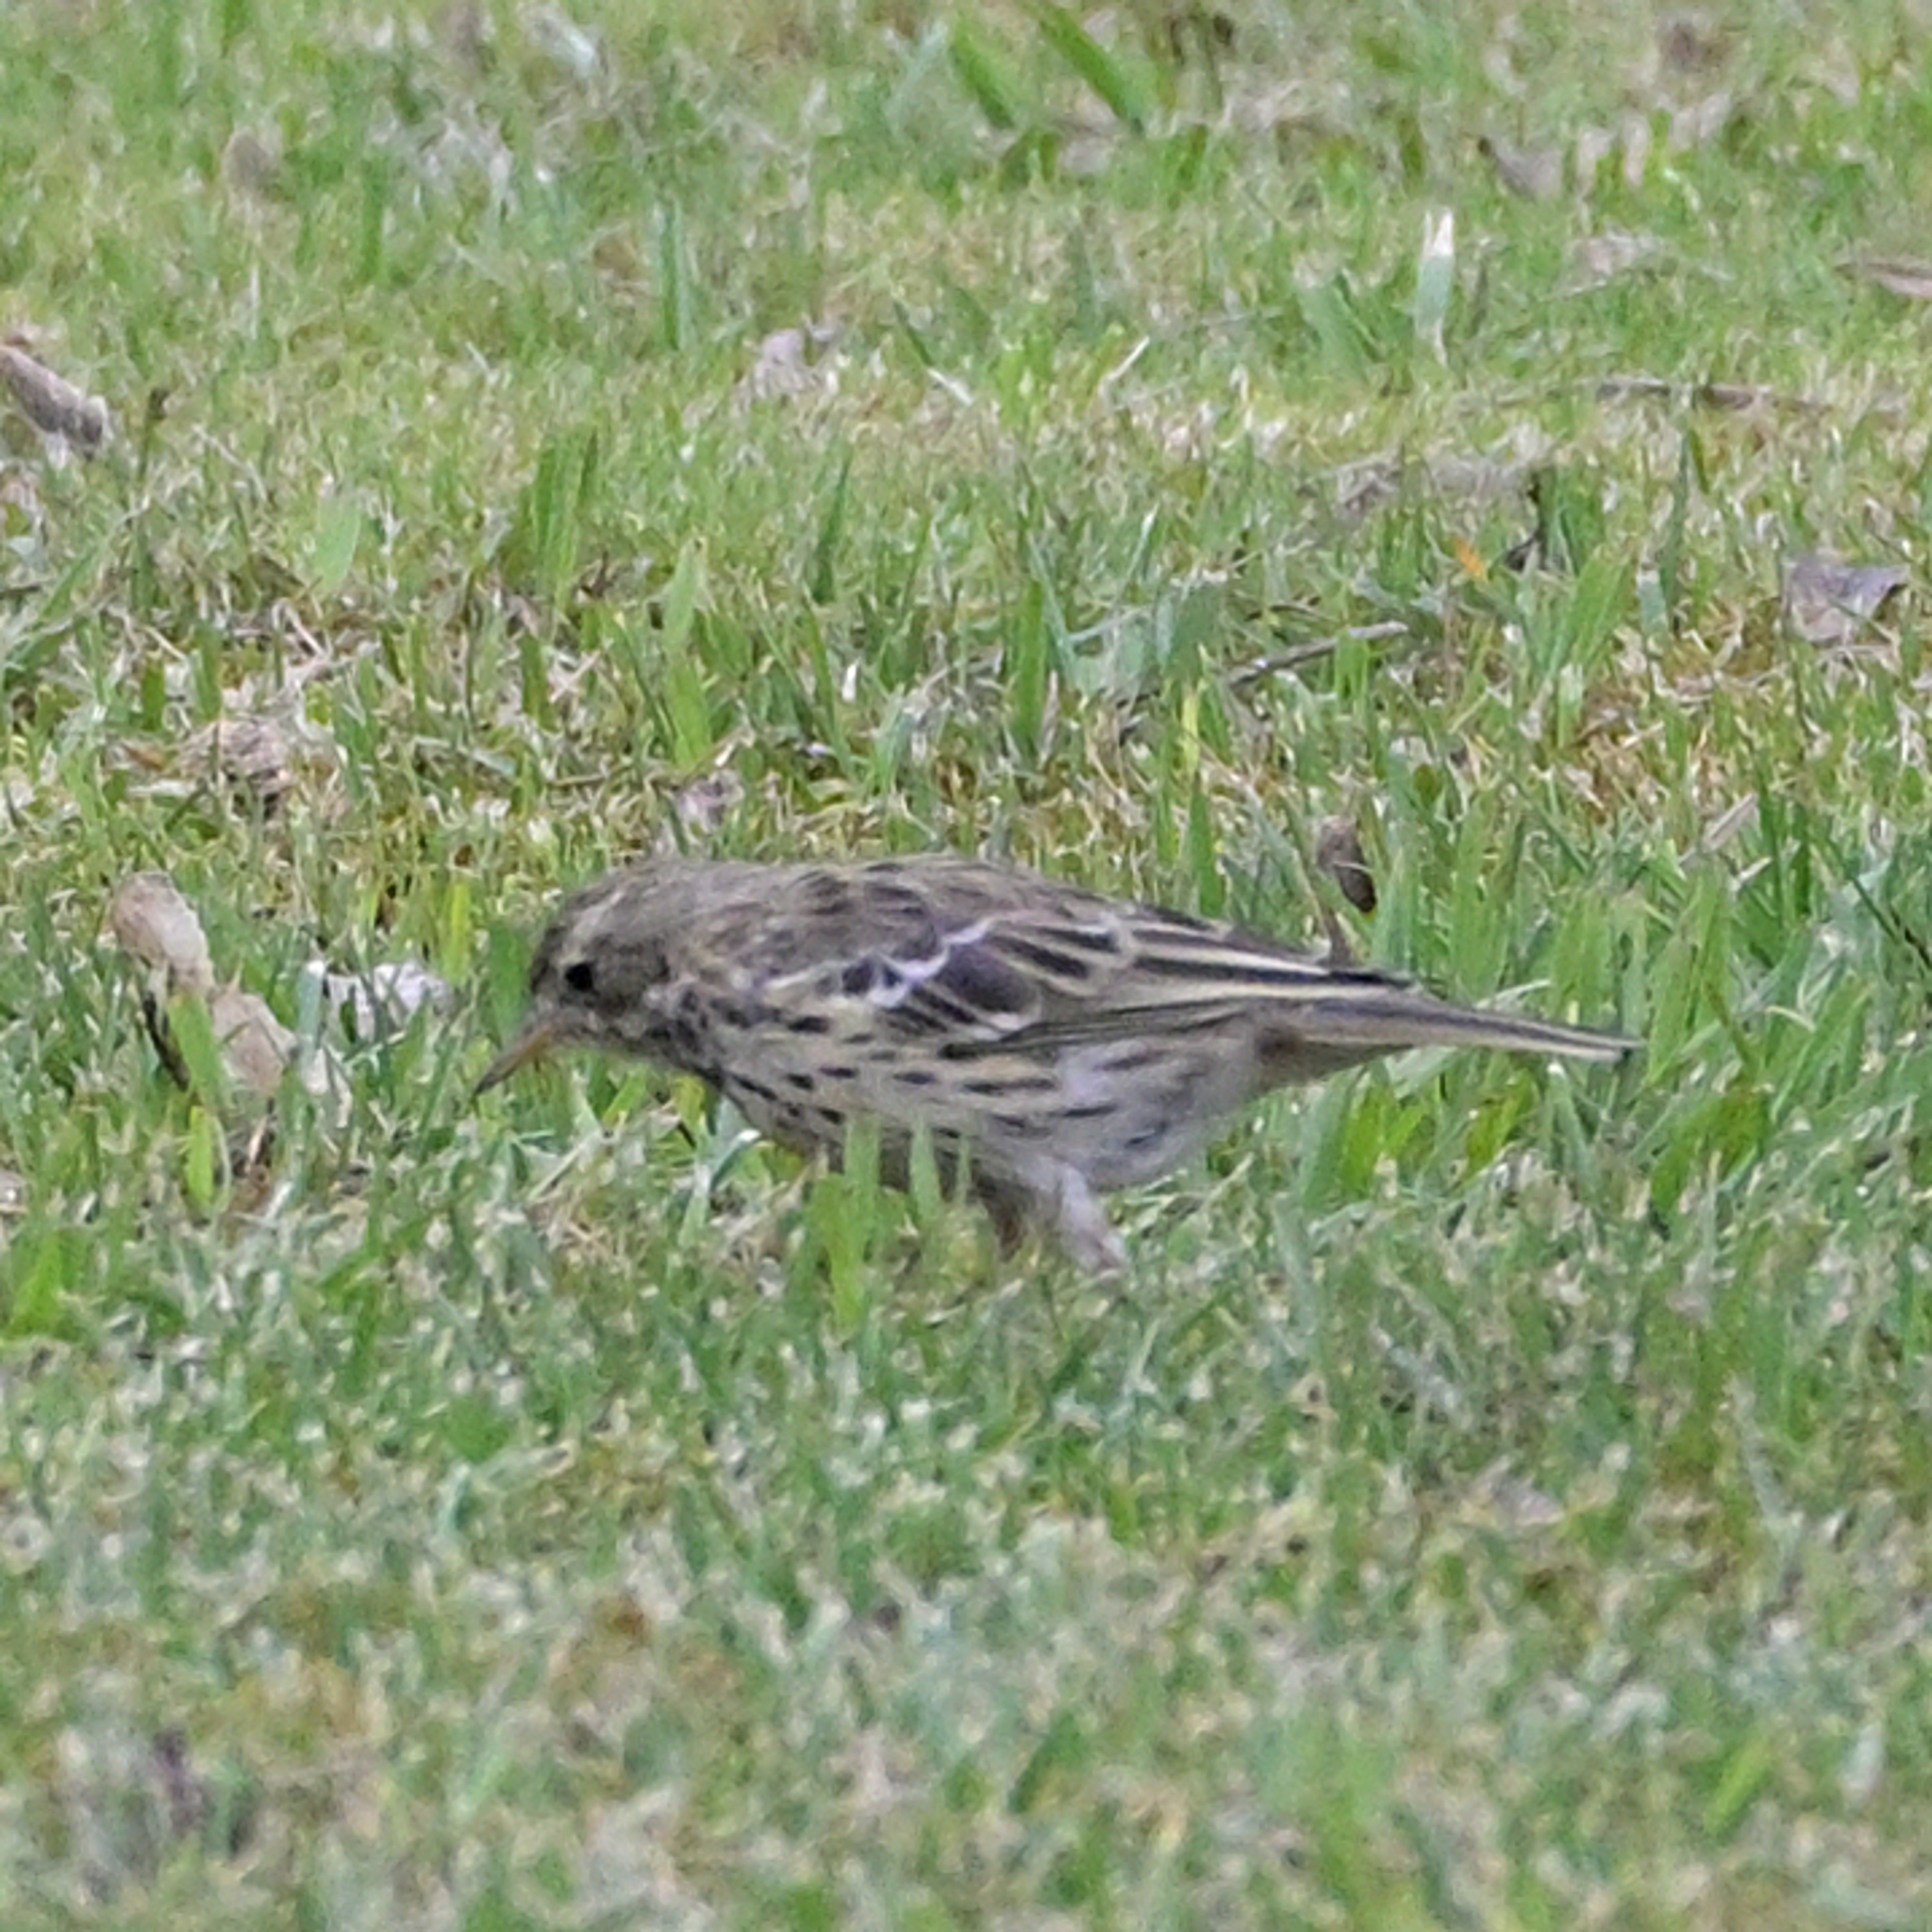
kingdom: Animalia
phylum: Chordata
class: Aves
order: Passeriformes
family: Motacillidae
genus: Anthus
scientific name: Anthus pratensis
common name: Meadow pipit
